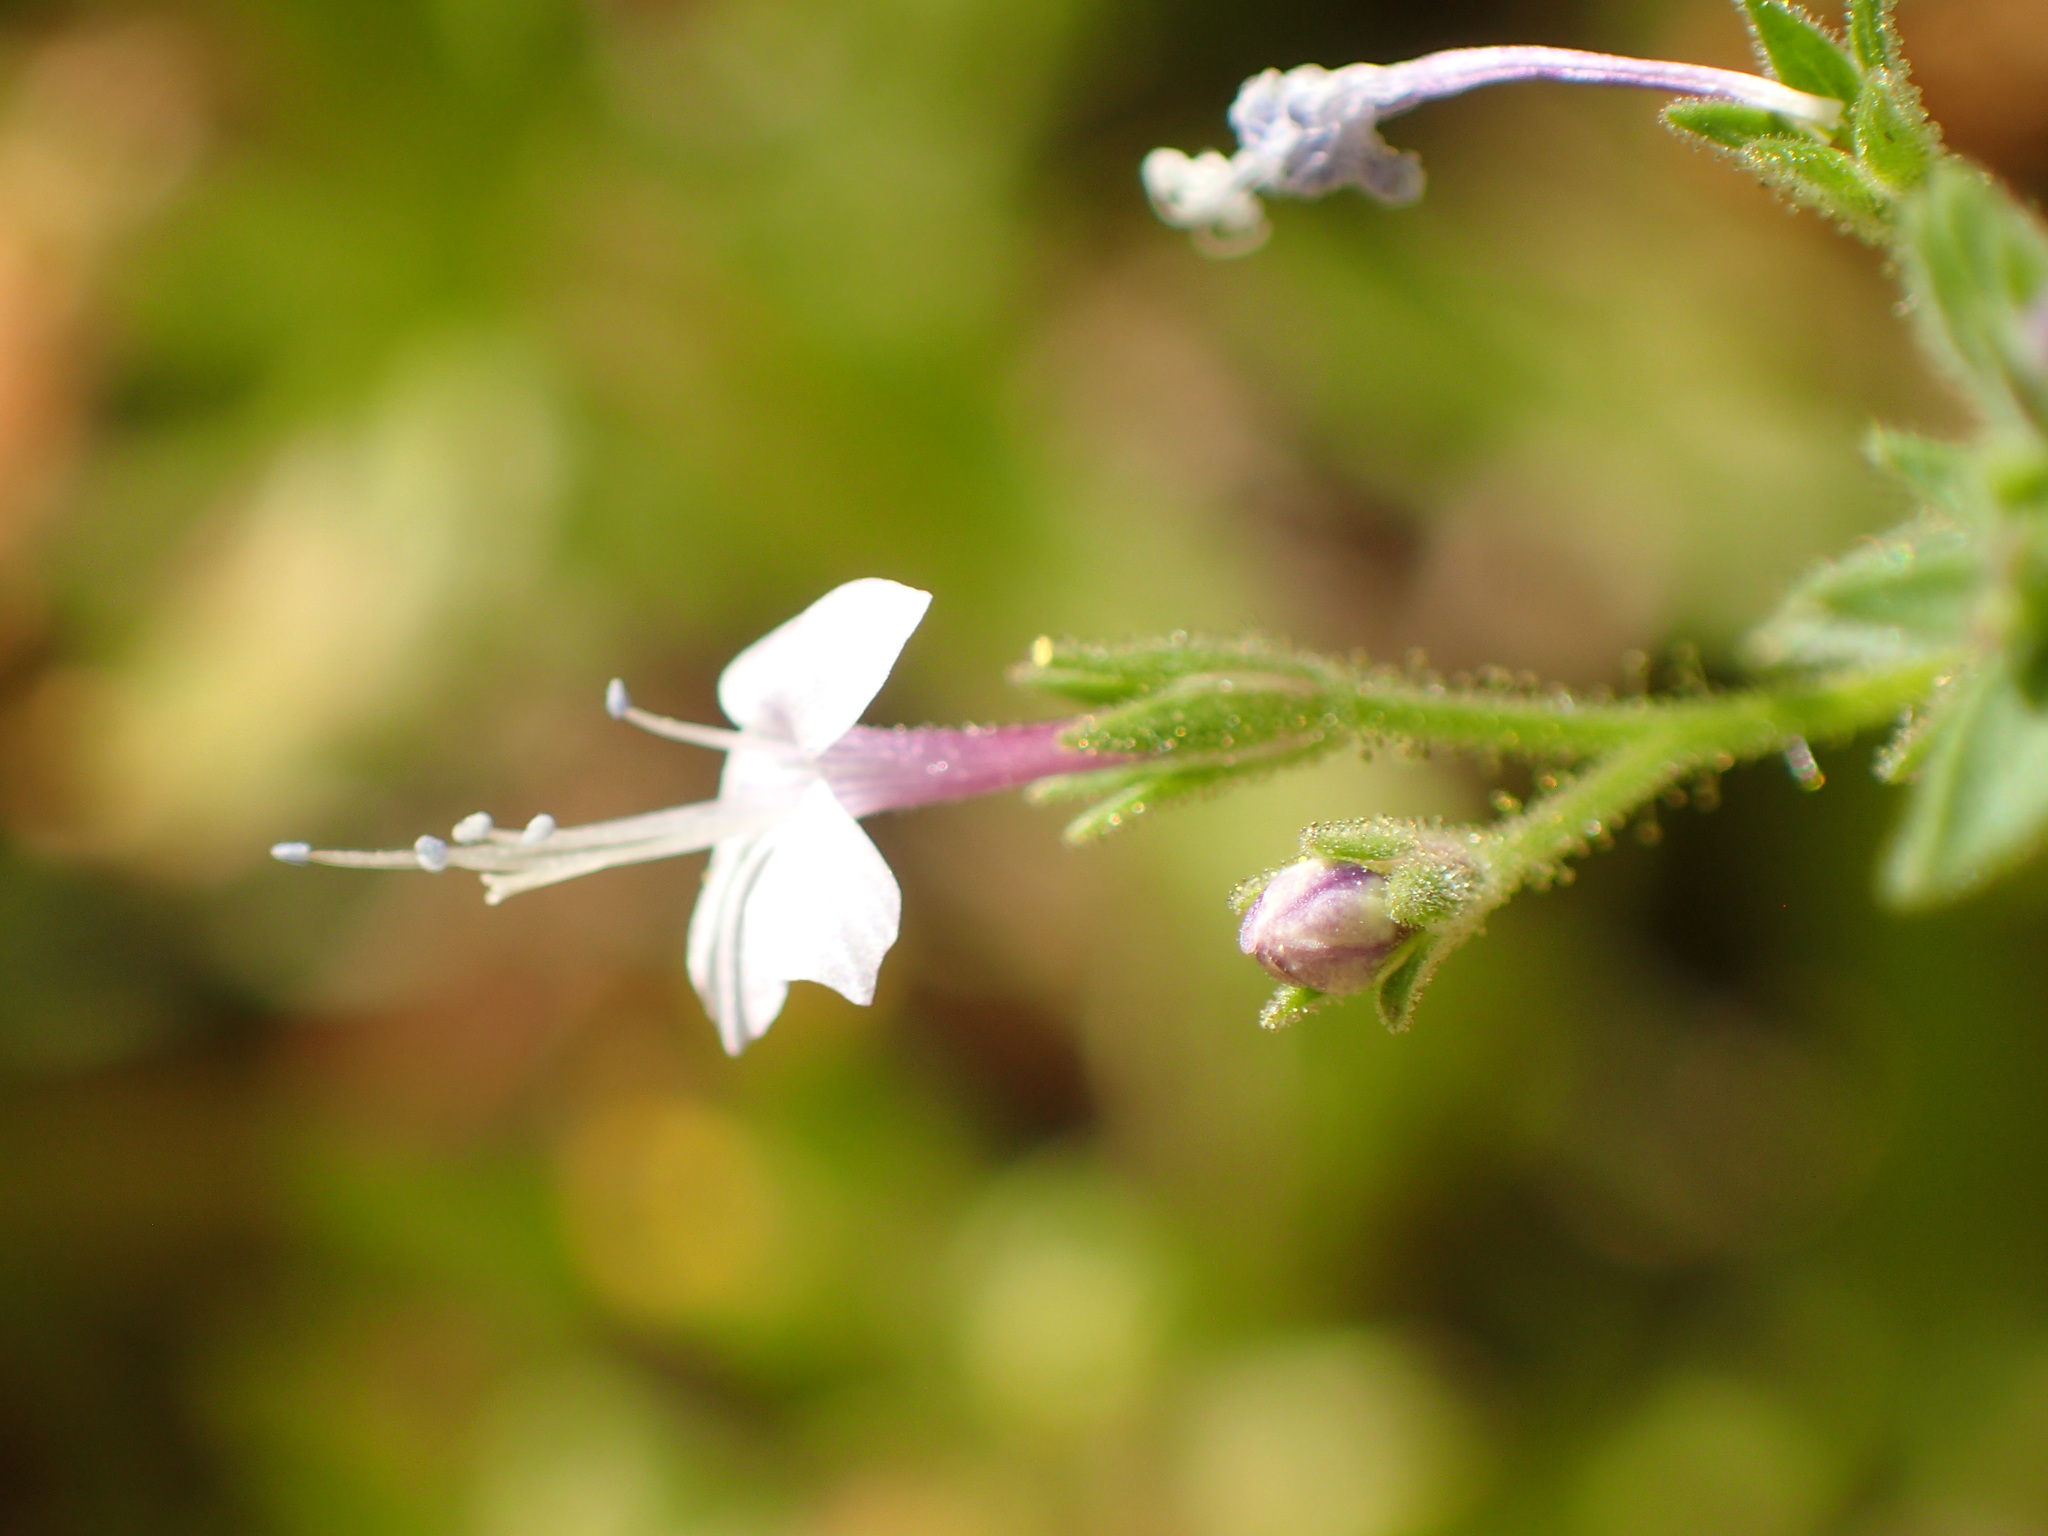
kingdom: Plantae
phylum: Tracheophyta
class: Magnoliopsida
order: Ericales
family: Polemoniaceae
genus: Allophyllum
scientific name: Allophyllum glutinosum
